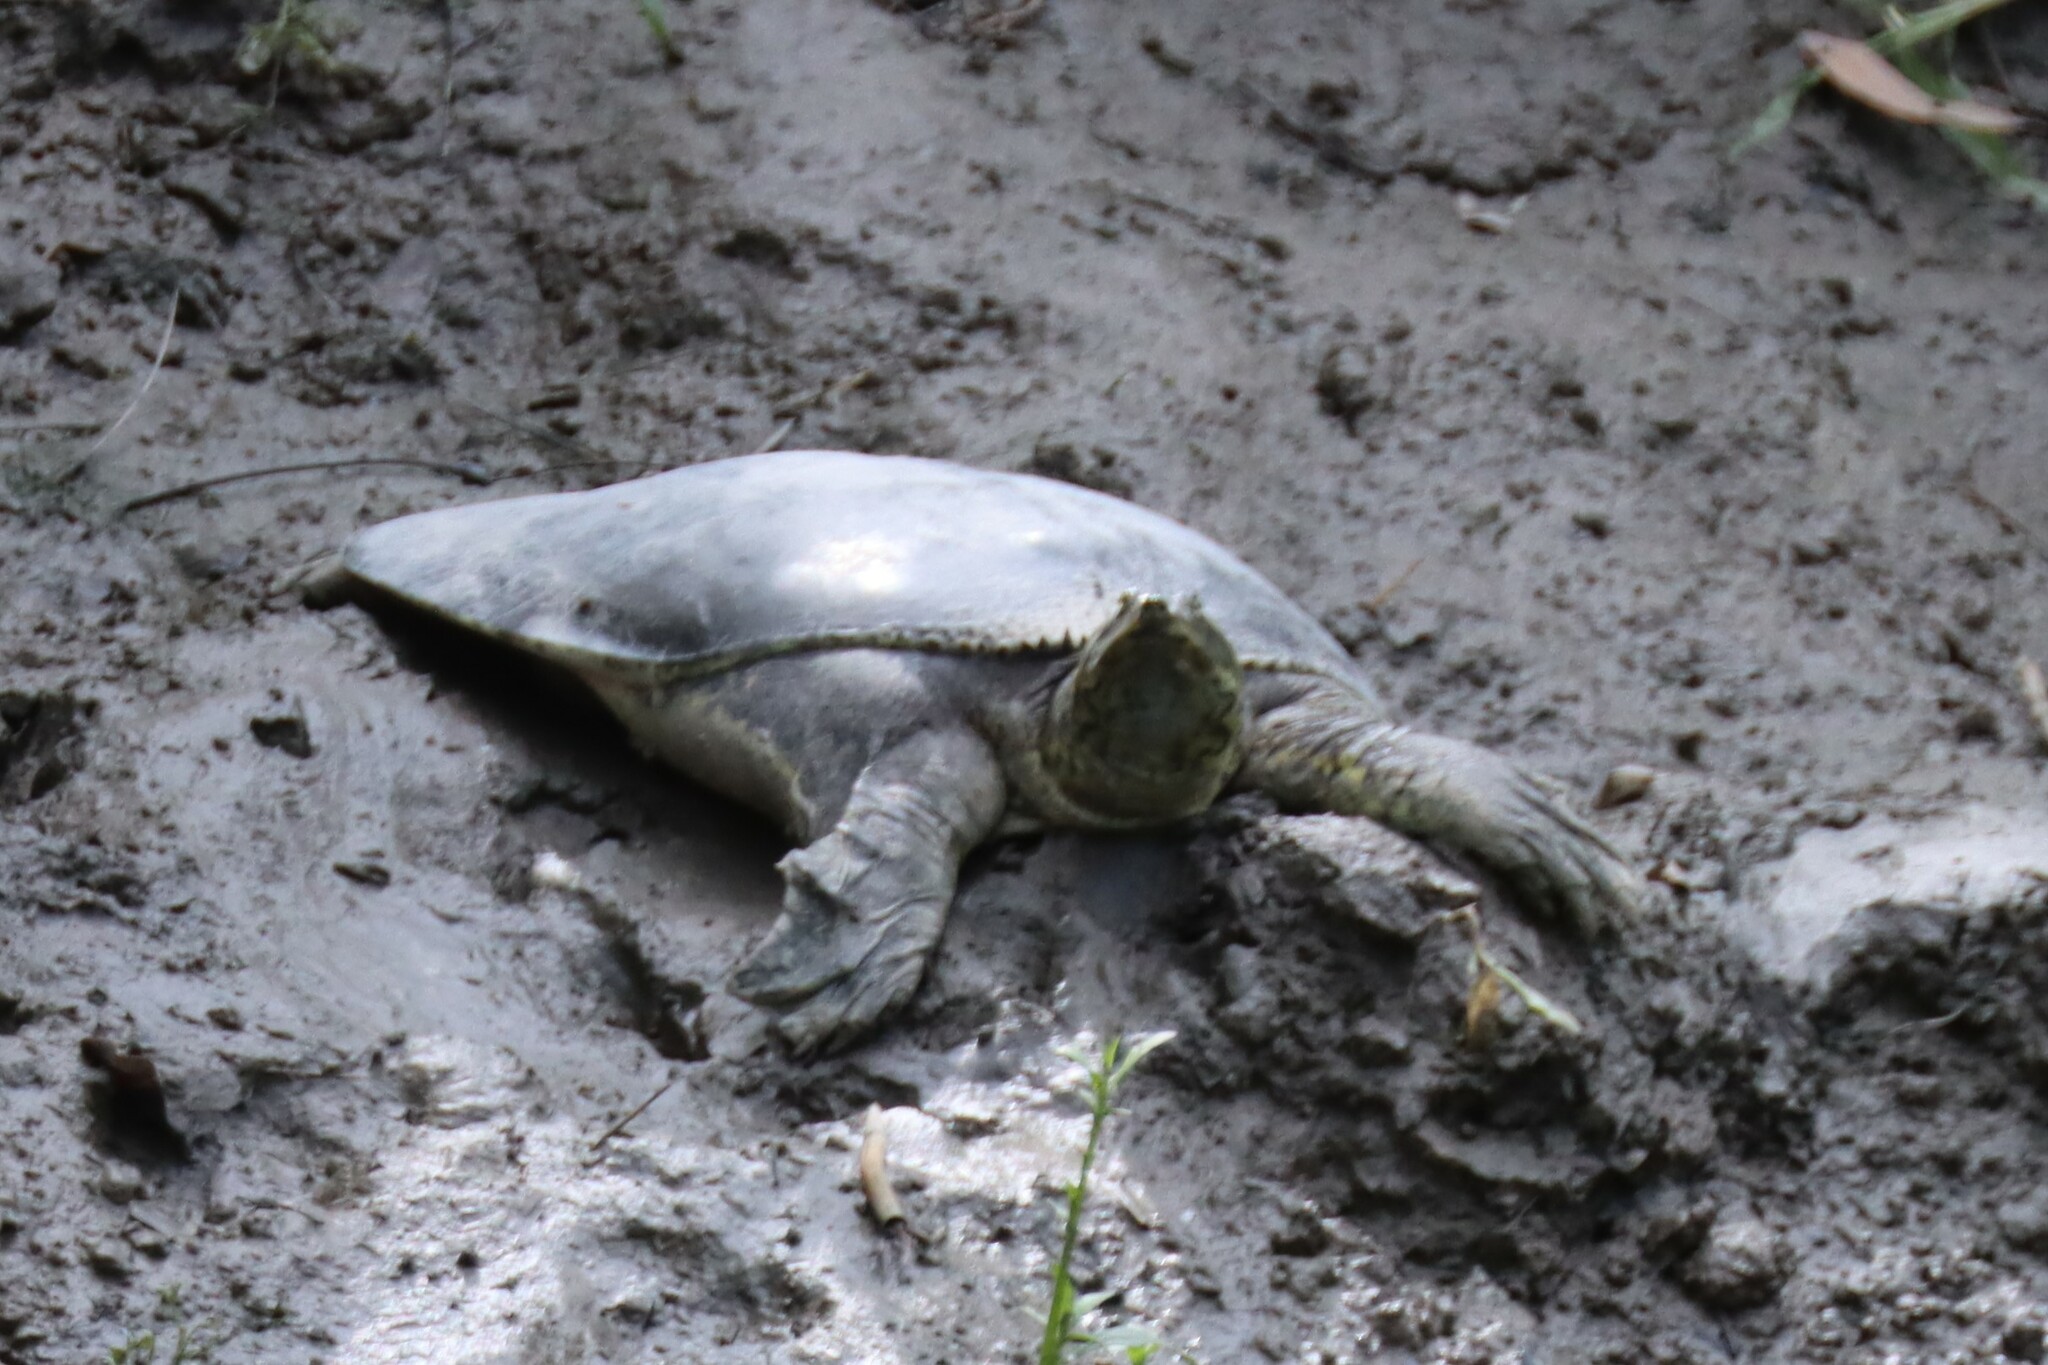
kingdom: Animalia
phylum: Chordata
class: Testudines
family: Trionychidae
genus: Apalone
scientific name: Apalone spinifera
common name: Spiny softshell turtle
